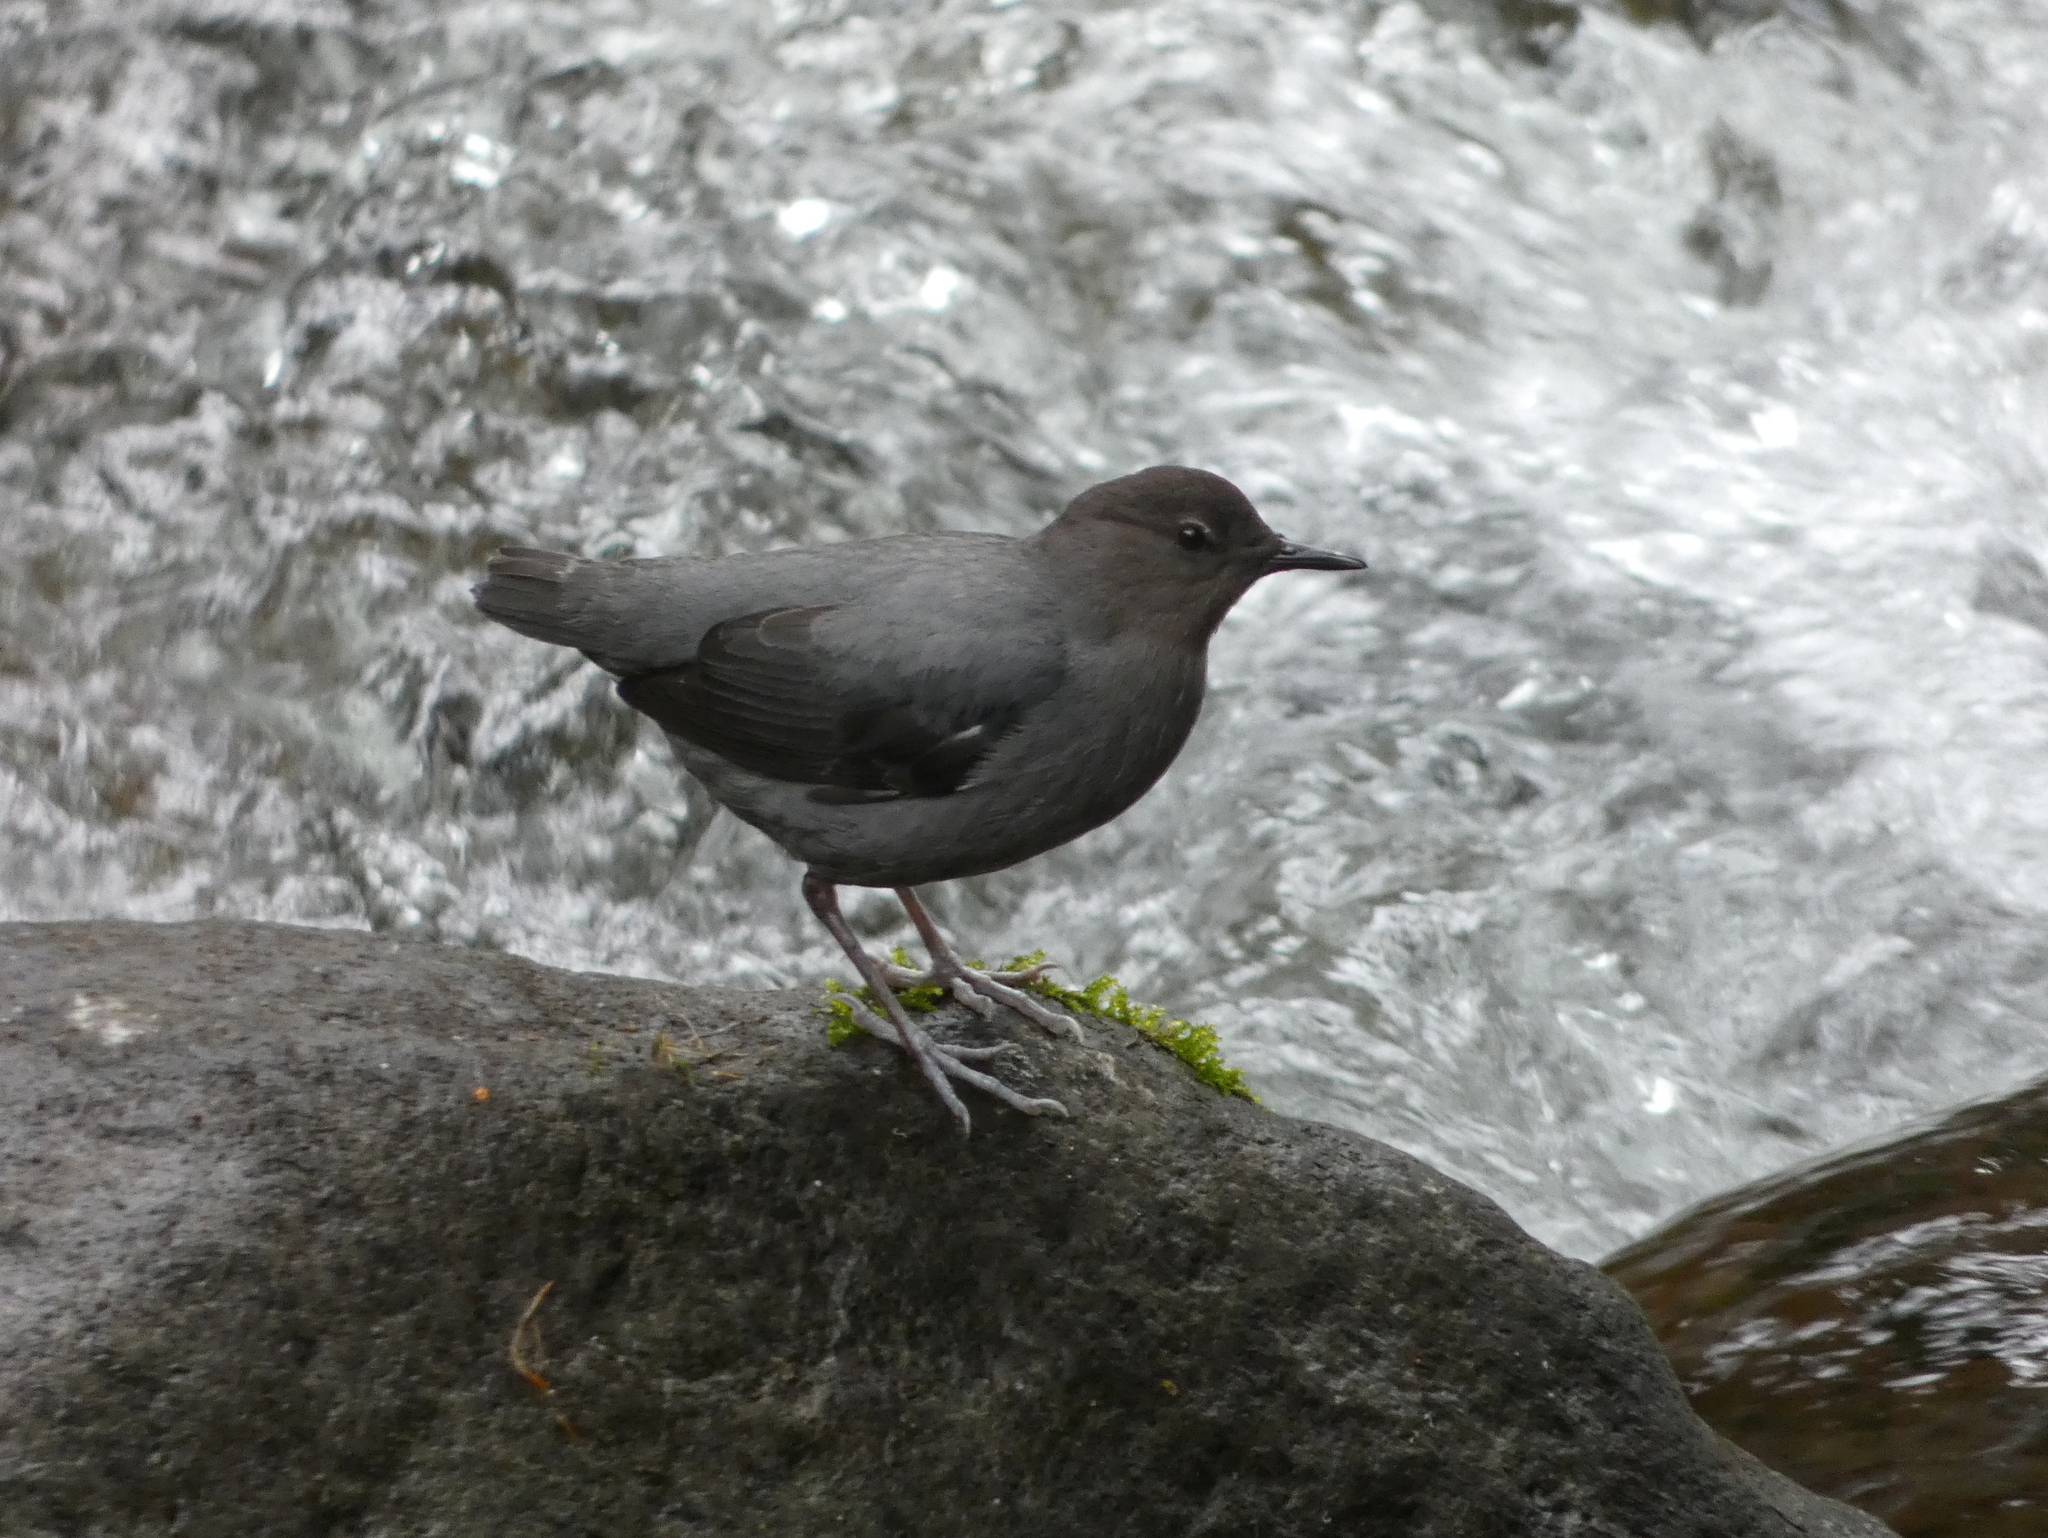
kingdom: Animalia
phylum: Chordata
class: Aves
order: Passeriformes
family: Cinclidae
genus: Cinclus
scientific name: Cinclus mexicanus
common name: American dipper
